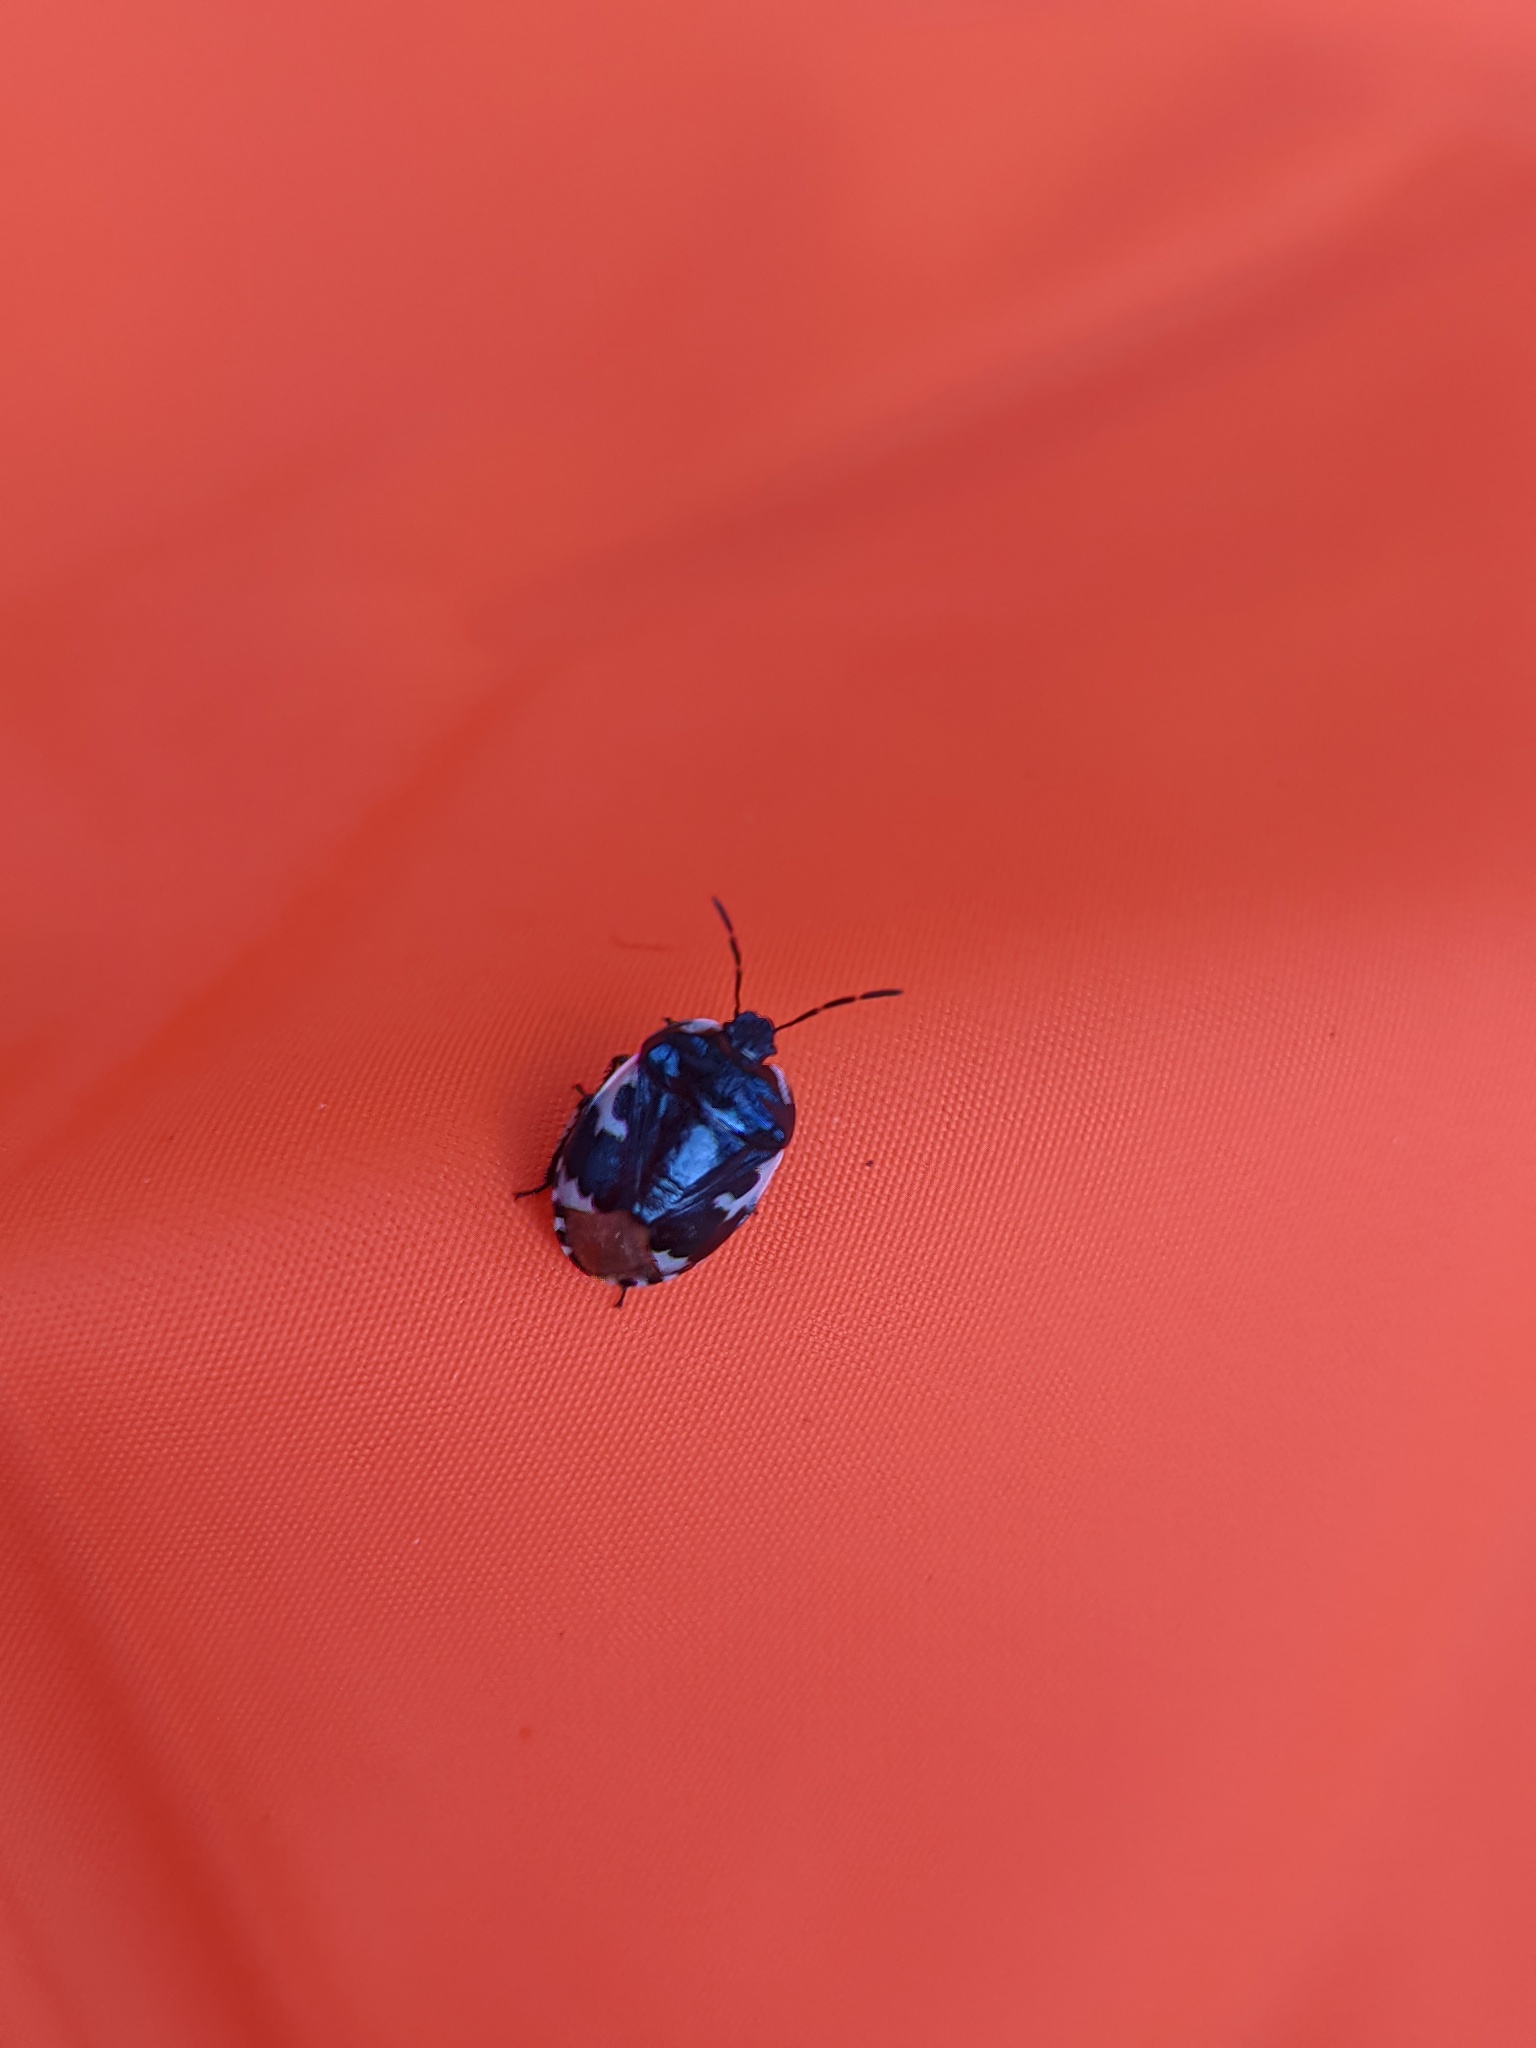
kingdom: Animalia
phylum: Arthropoda
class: Insecta
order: Hemiptera
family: Cydnidae
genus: Tritomegas
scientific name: Tritomegas bicolor
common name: Pied shieldbug
